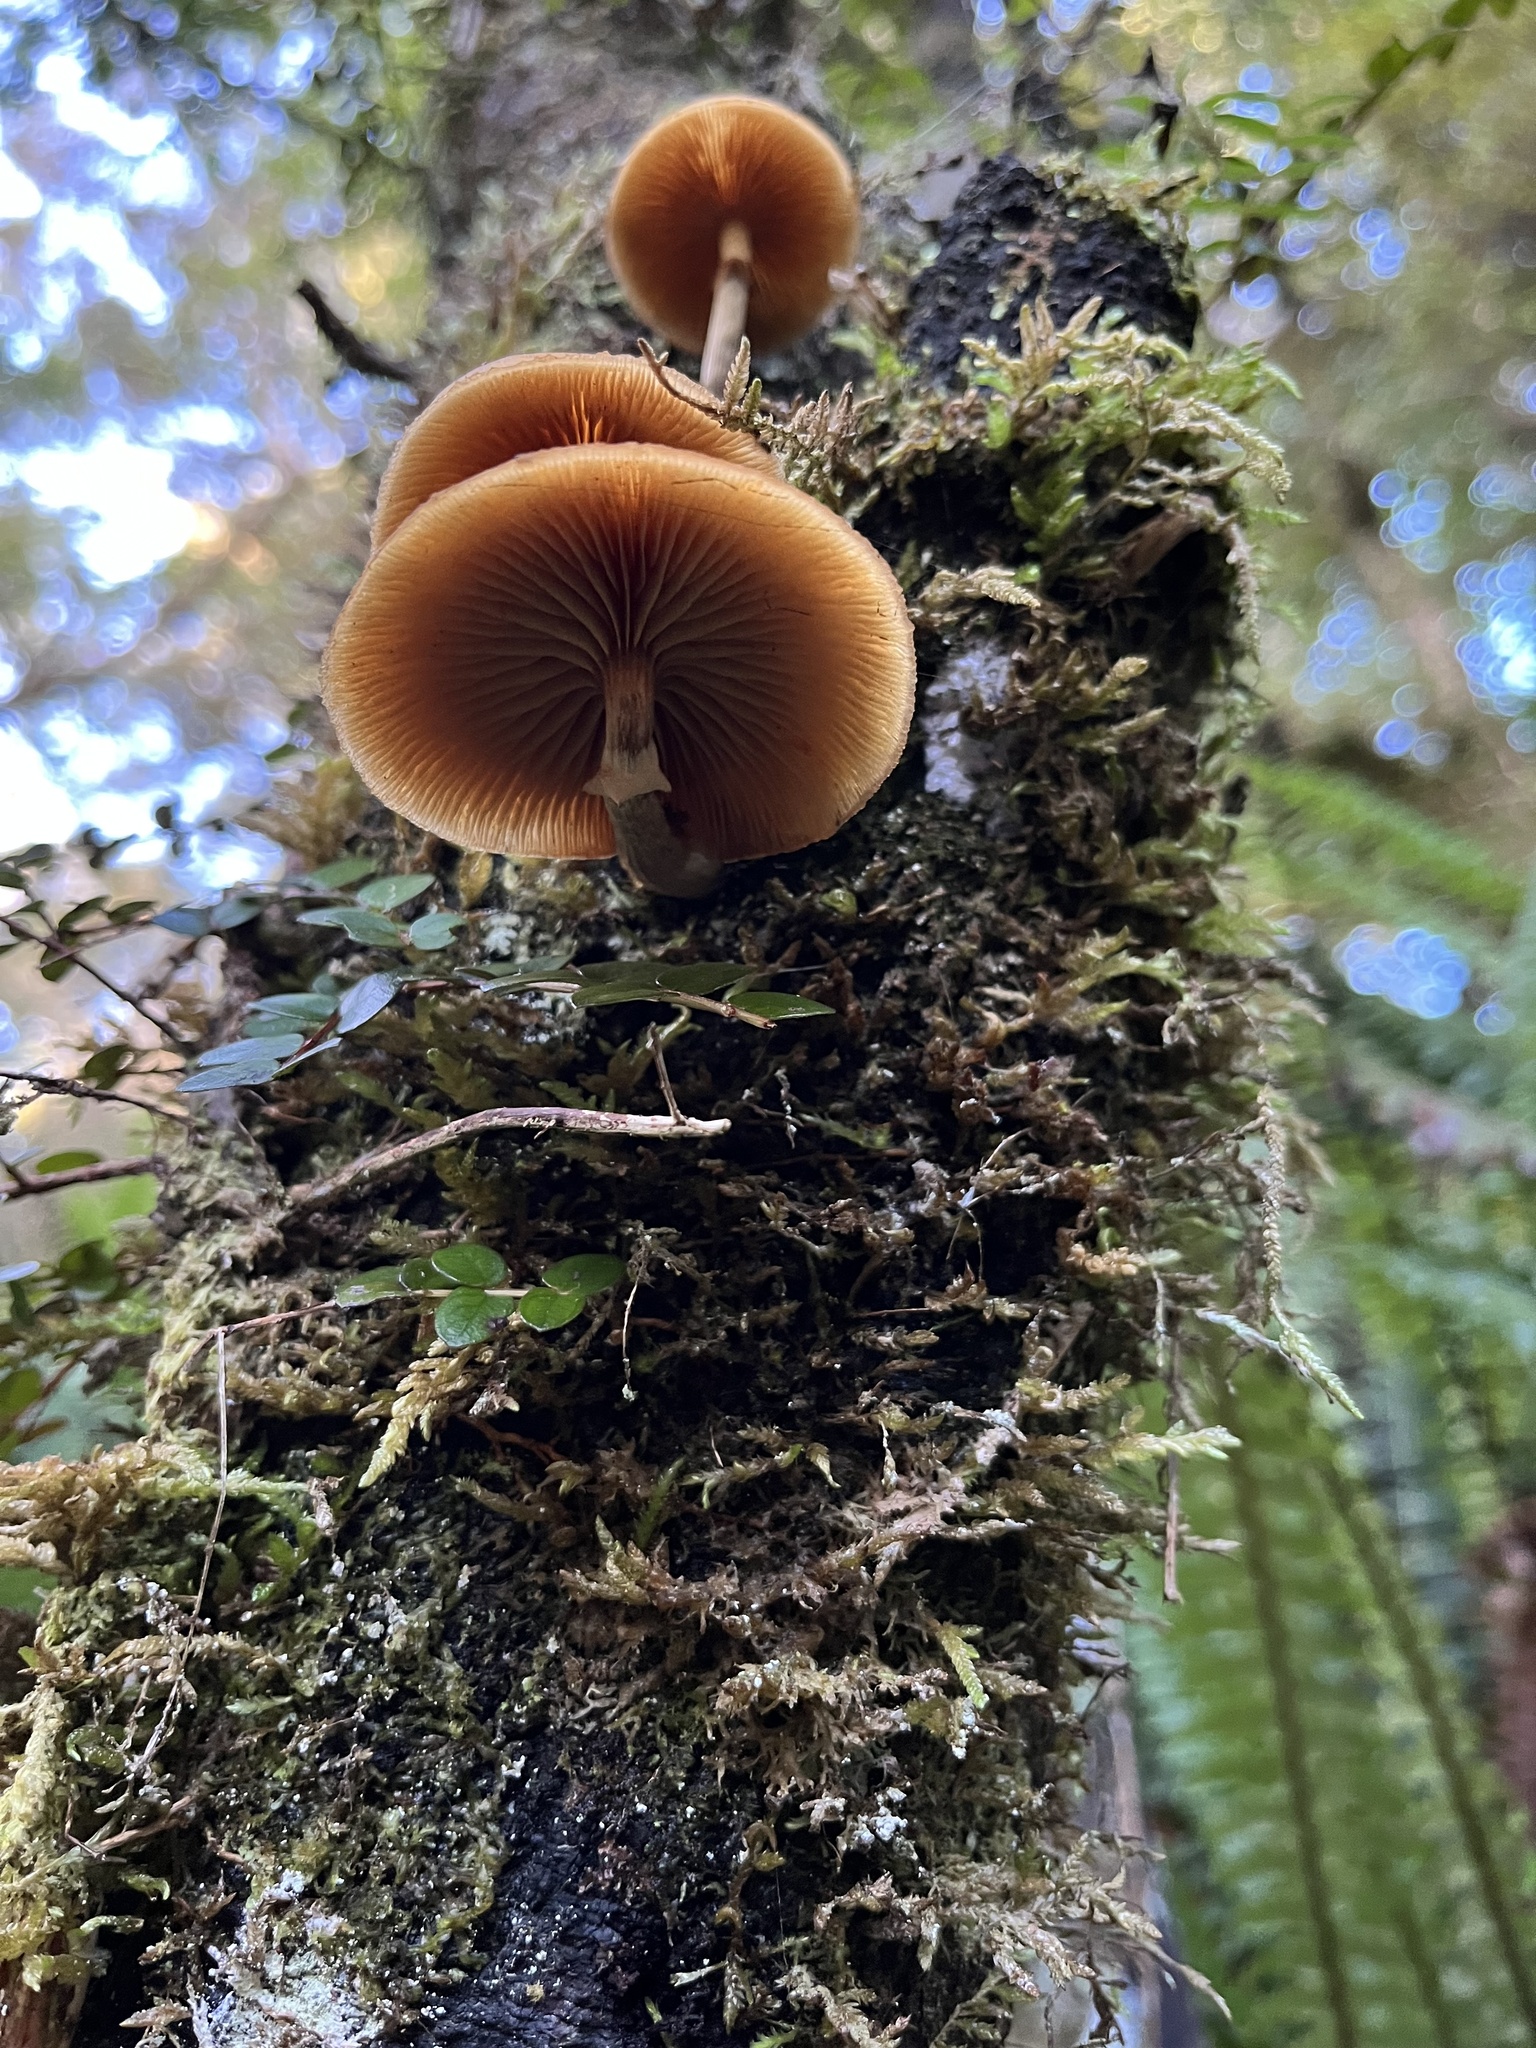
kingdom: Fungi
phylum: Basidiomycota
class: Agaricomycetes
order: Agaricales
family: Hymenogastraceae
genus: Galerina
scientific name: Galerina patagonica
